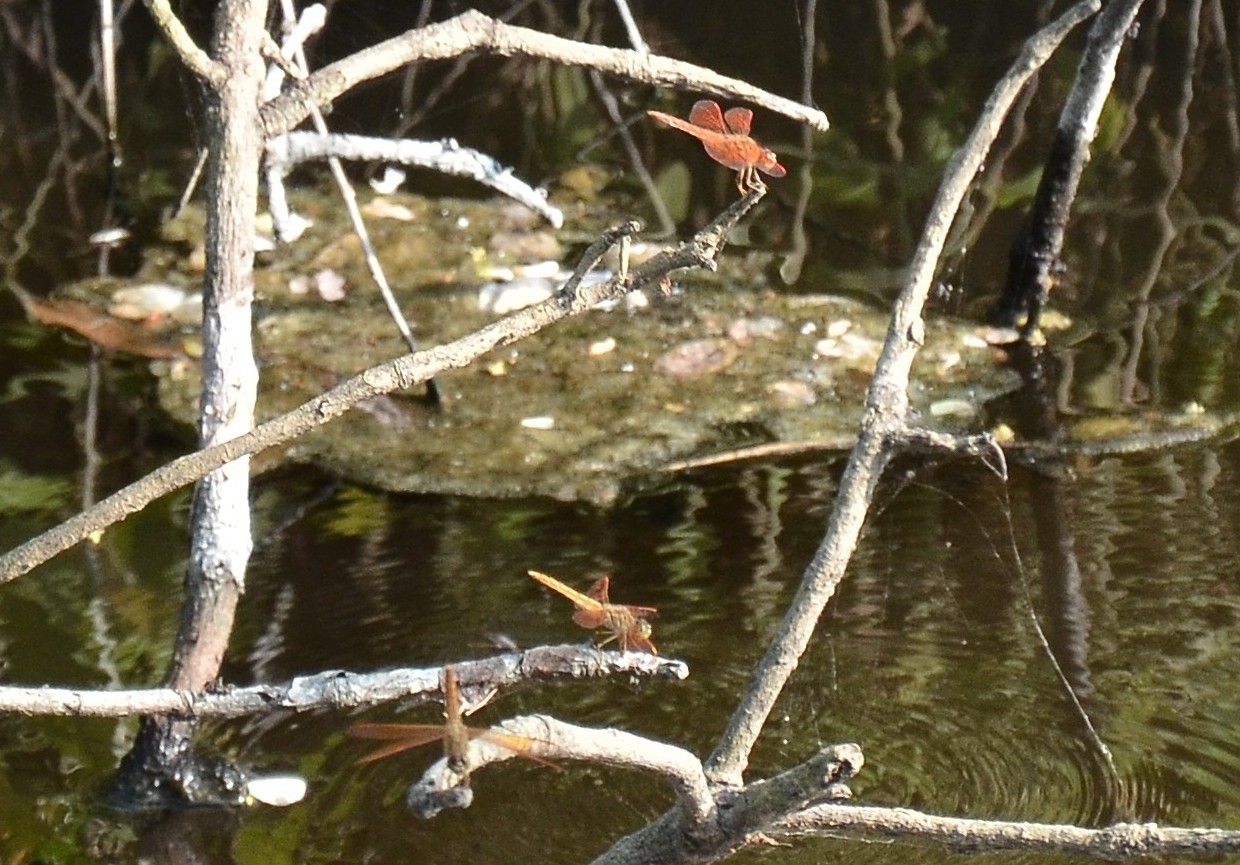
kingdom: Animalia
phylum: Arthropoda
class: Insecta
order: Odonata
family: Libellulidae
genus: Brachythemis
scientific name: Brachythemis contaminata
